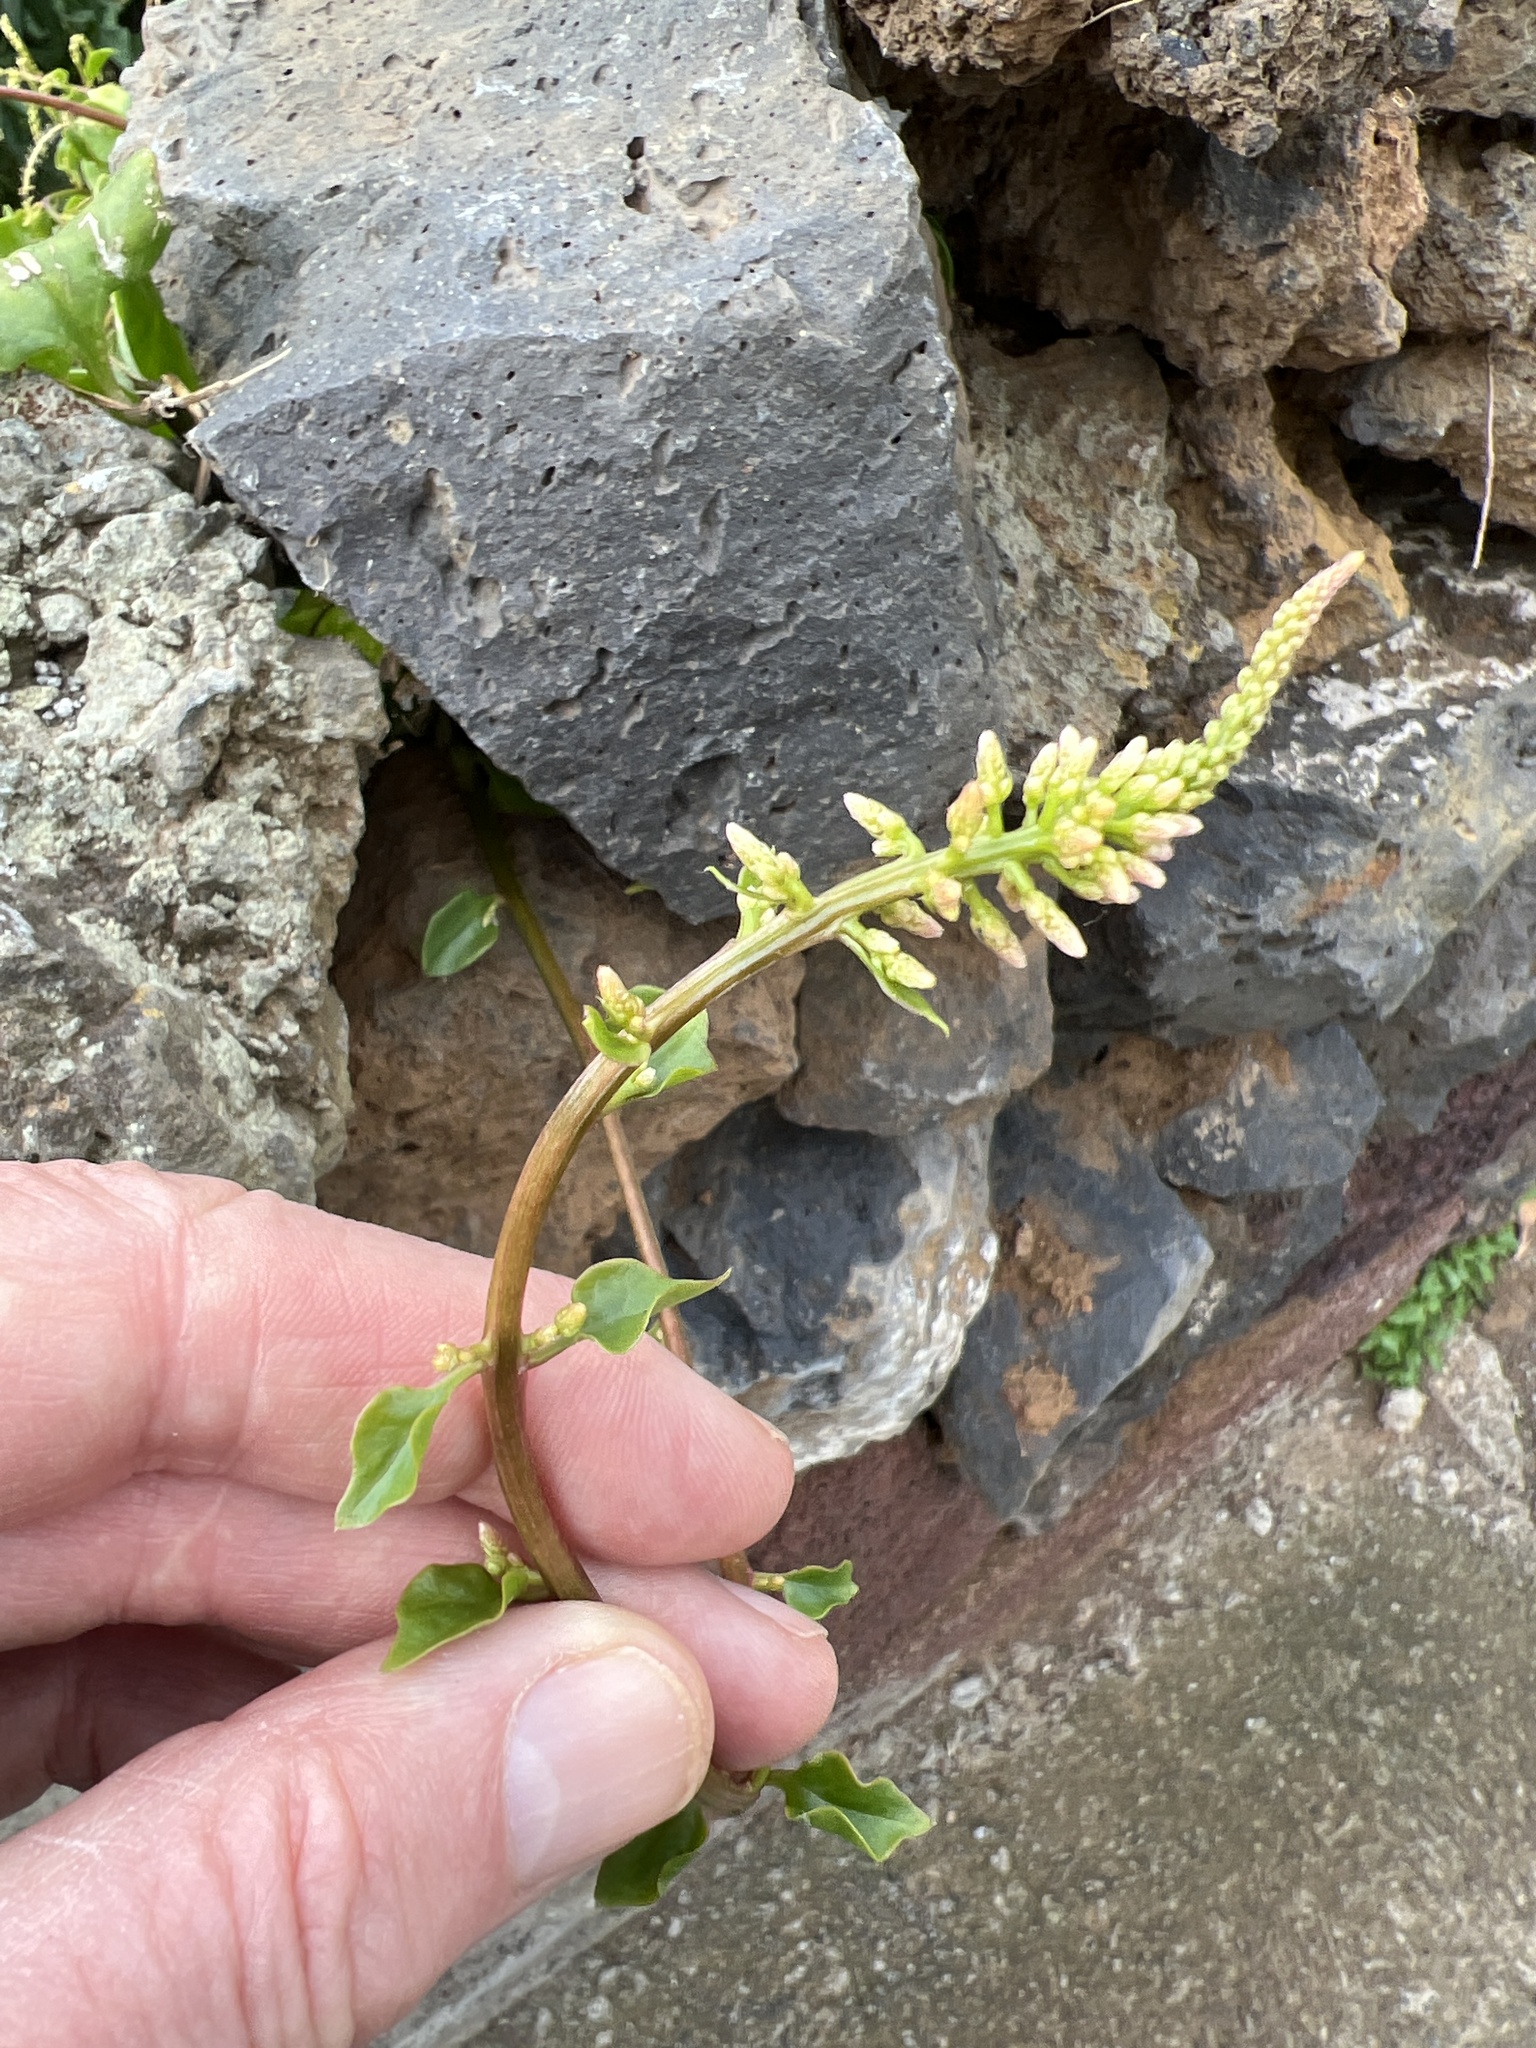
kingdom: Plantae
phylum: Tracheophyta
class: Magnoliopsida
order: Caryophyllales
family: Amaranthaceae
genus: Patellifolia
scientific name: Patellifolia procumbens
